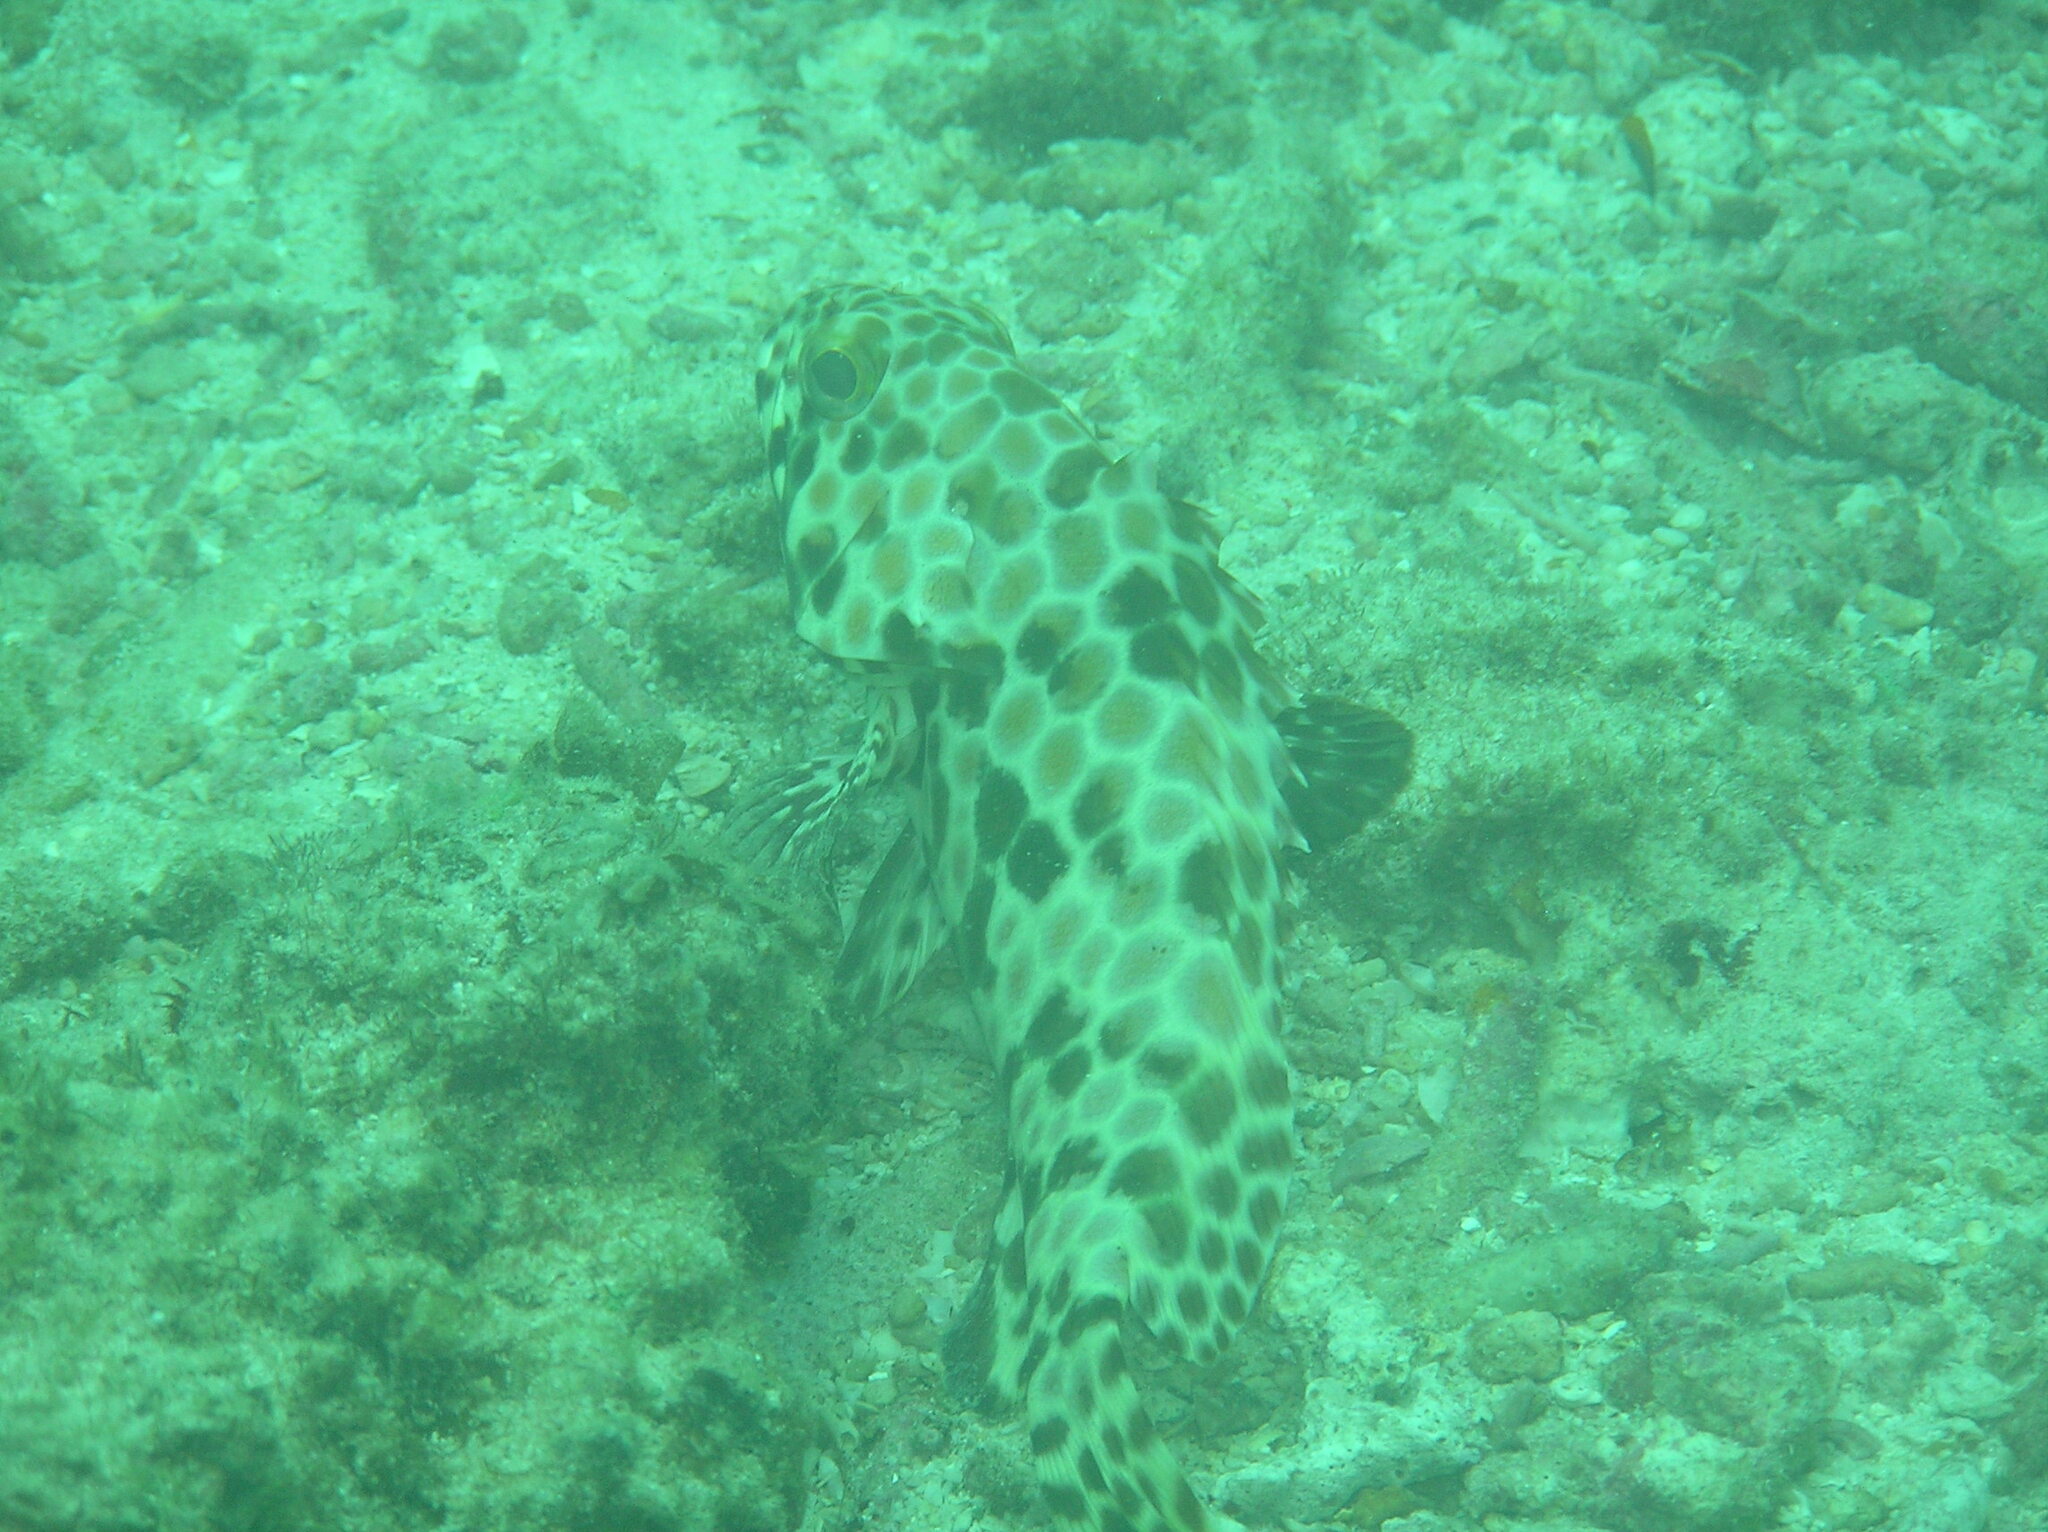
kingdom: Animalia
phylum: Chordata
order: Perciformes
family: Serranidae
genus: Epinephelus
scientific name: Epinephelus quoyanus
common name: Longfin grouper
